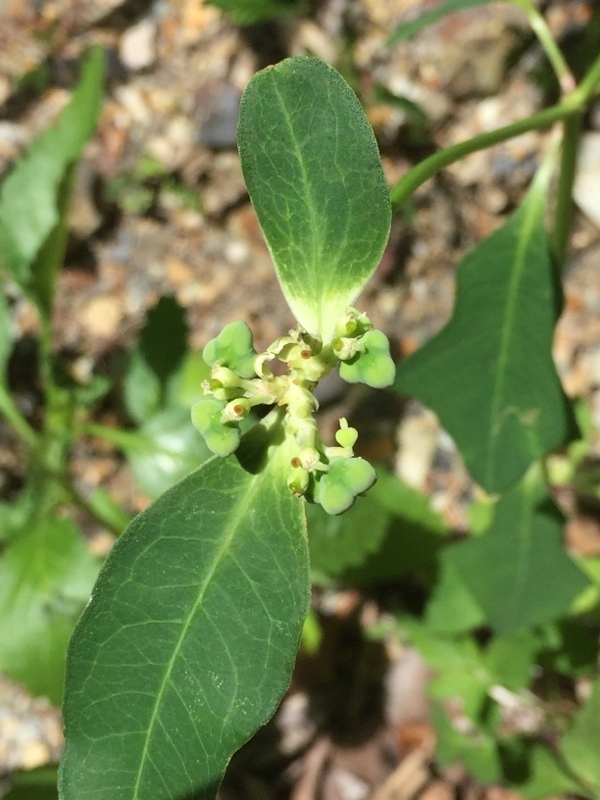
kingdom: Plantae
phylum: Tracheophyta
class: Magnoliopsida
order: Malpighiales
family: Euphorbiaceae
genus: Euphorbia
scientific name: Euphorbia heterophylla
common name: Mexican fireplant
